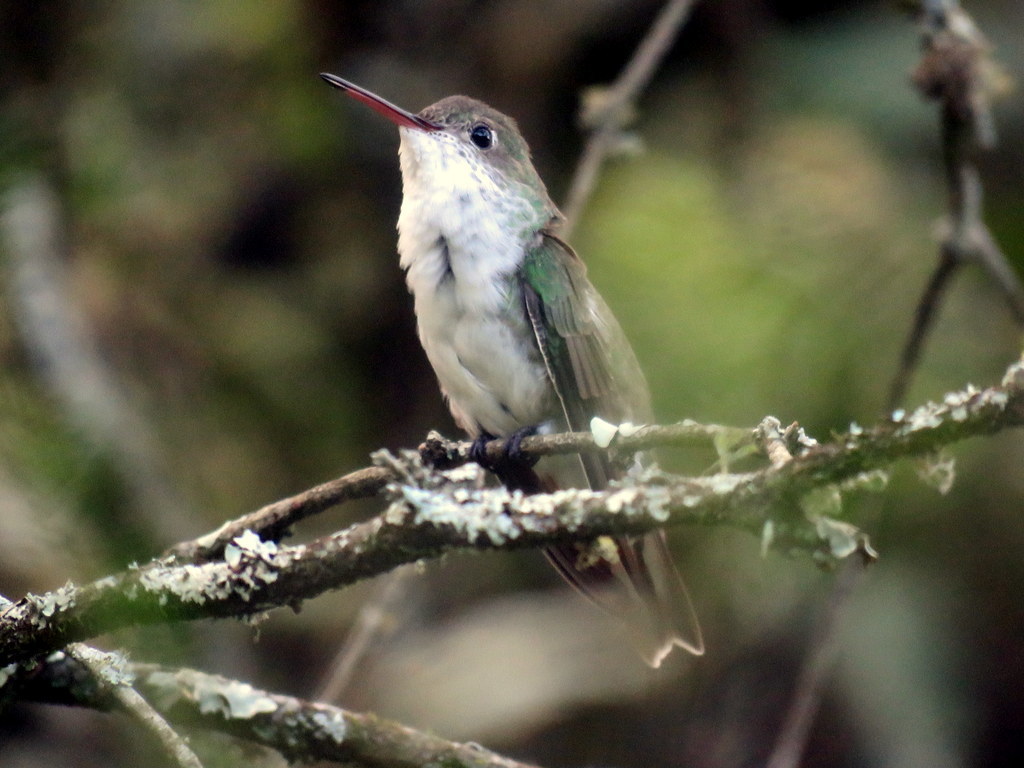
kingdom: Animalia
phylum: Chordata
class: Aves
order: Apodiformes
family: Trochilidae
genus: Elliotomyia
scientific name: Elliotomyia chionogaster
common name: White-bellied hummingbird
